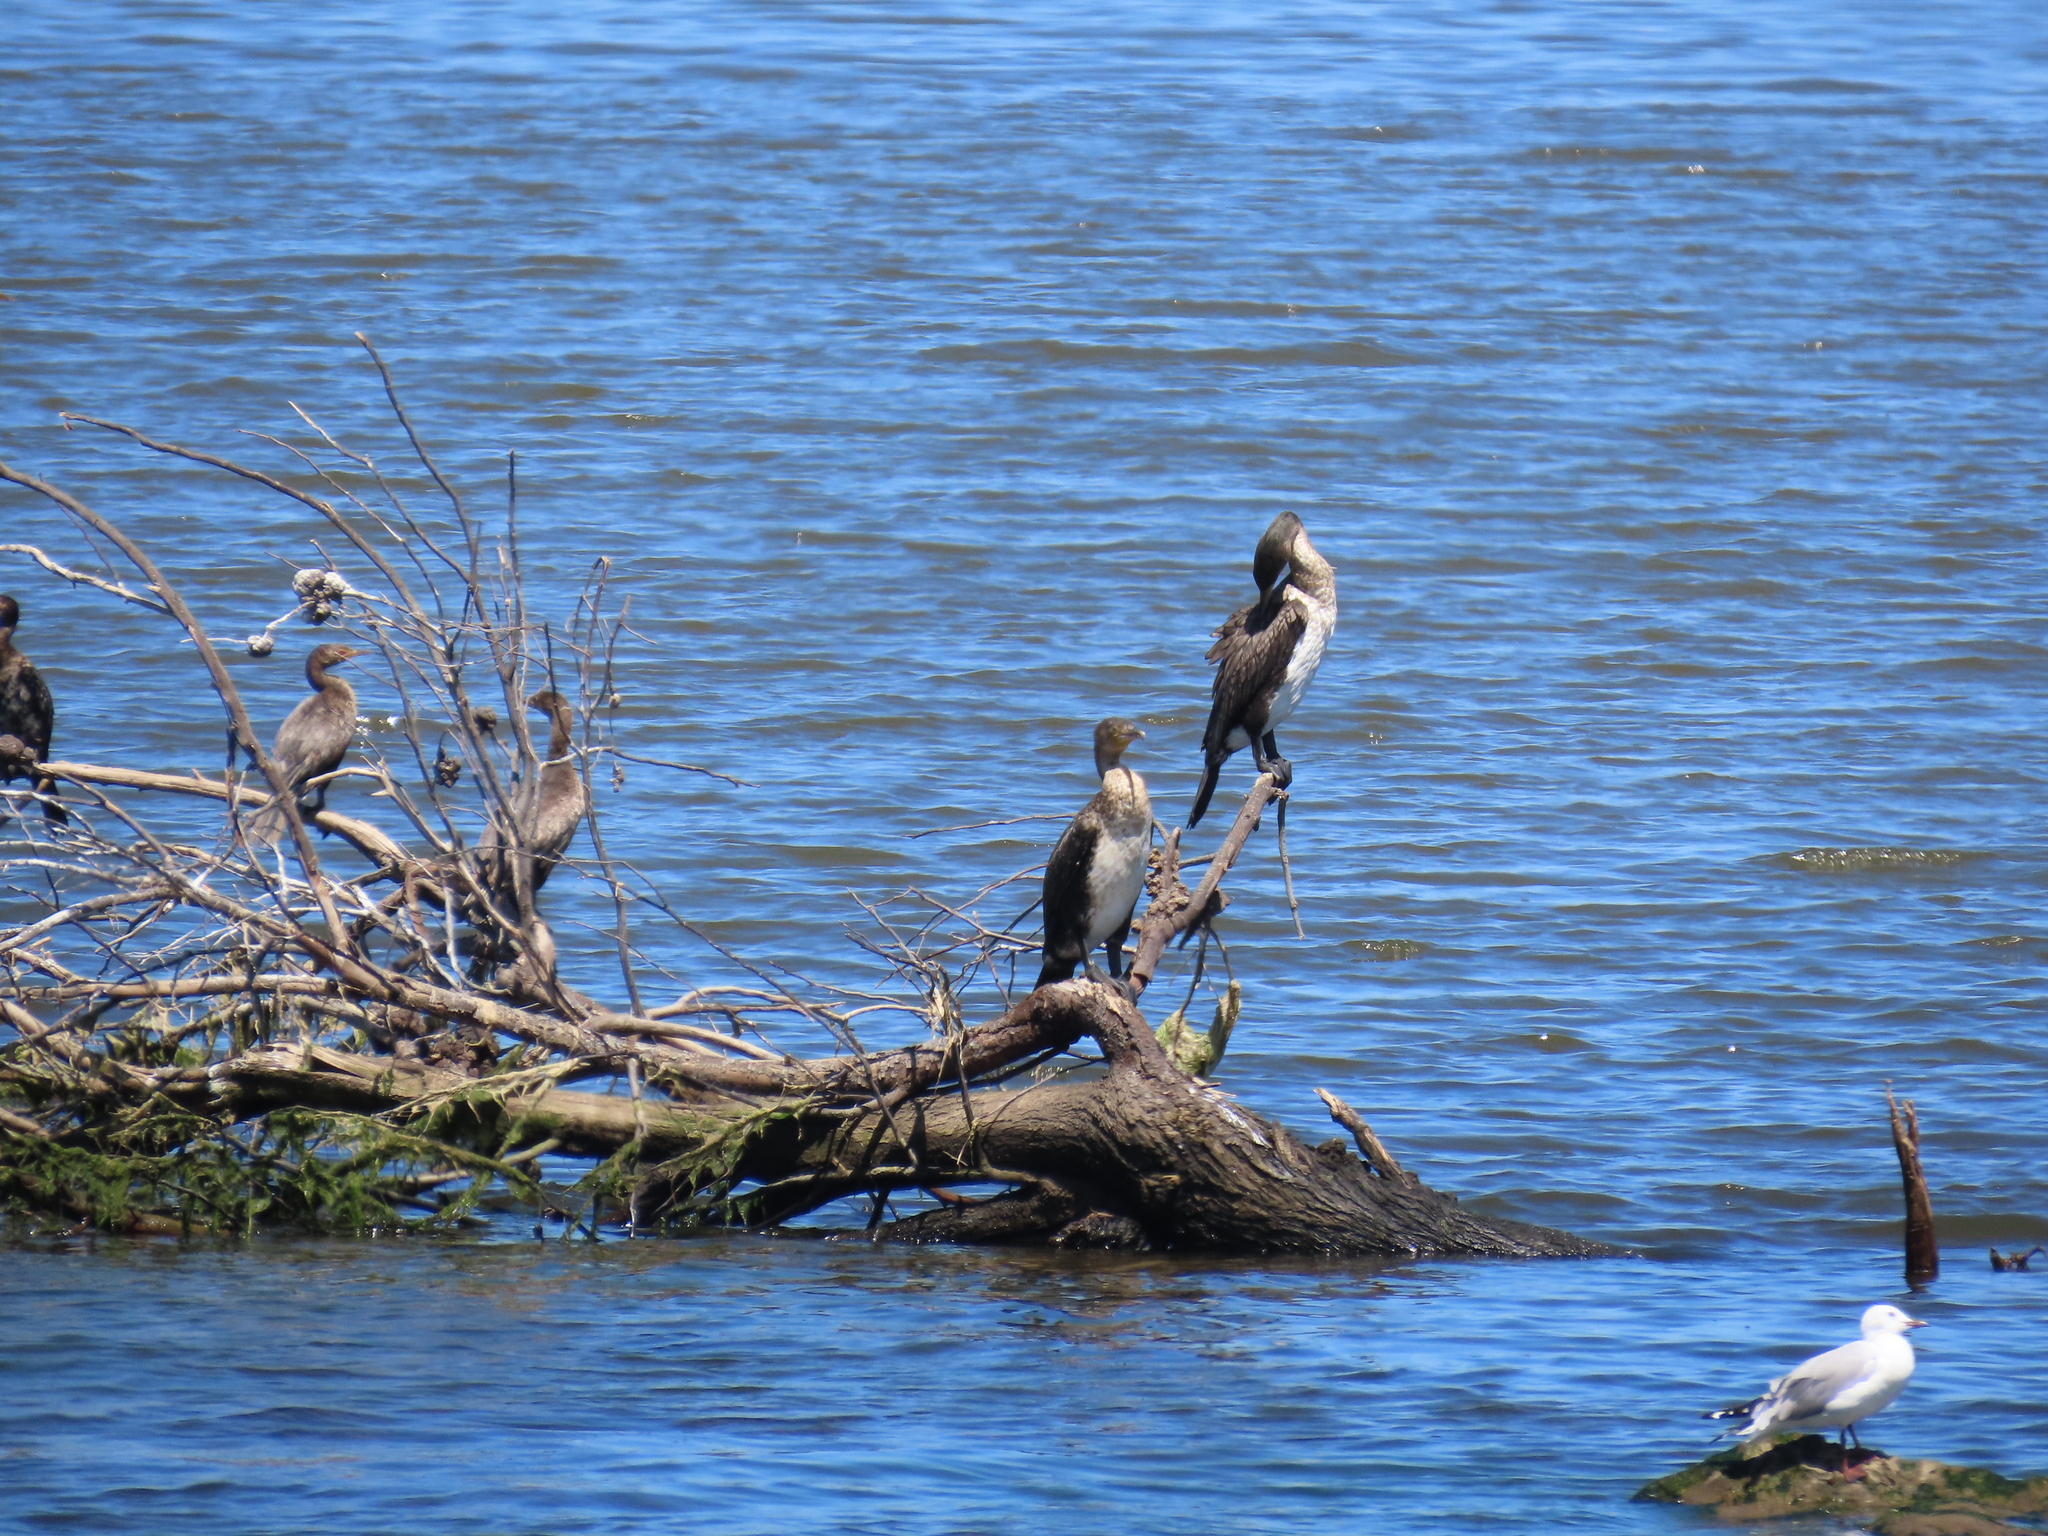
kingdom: Animalia
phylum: Chordata
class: Aves
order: Suliformes
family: Phalacrocoracidae
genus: Phalacrocorax
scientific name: Phalacrocorax carbo
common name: Great cormorant
